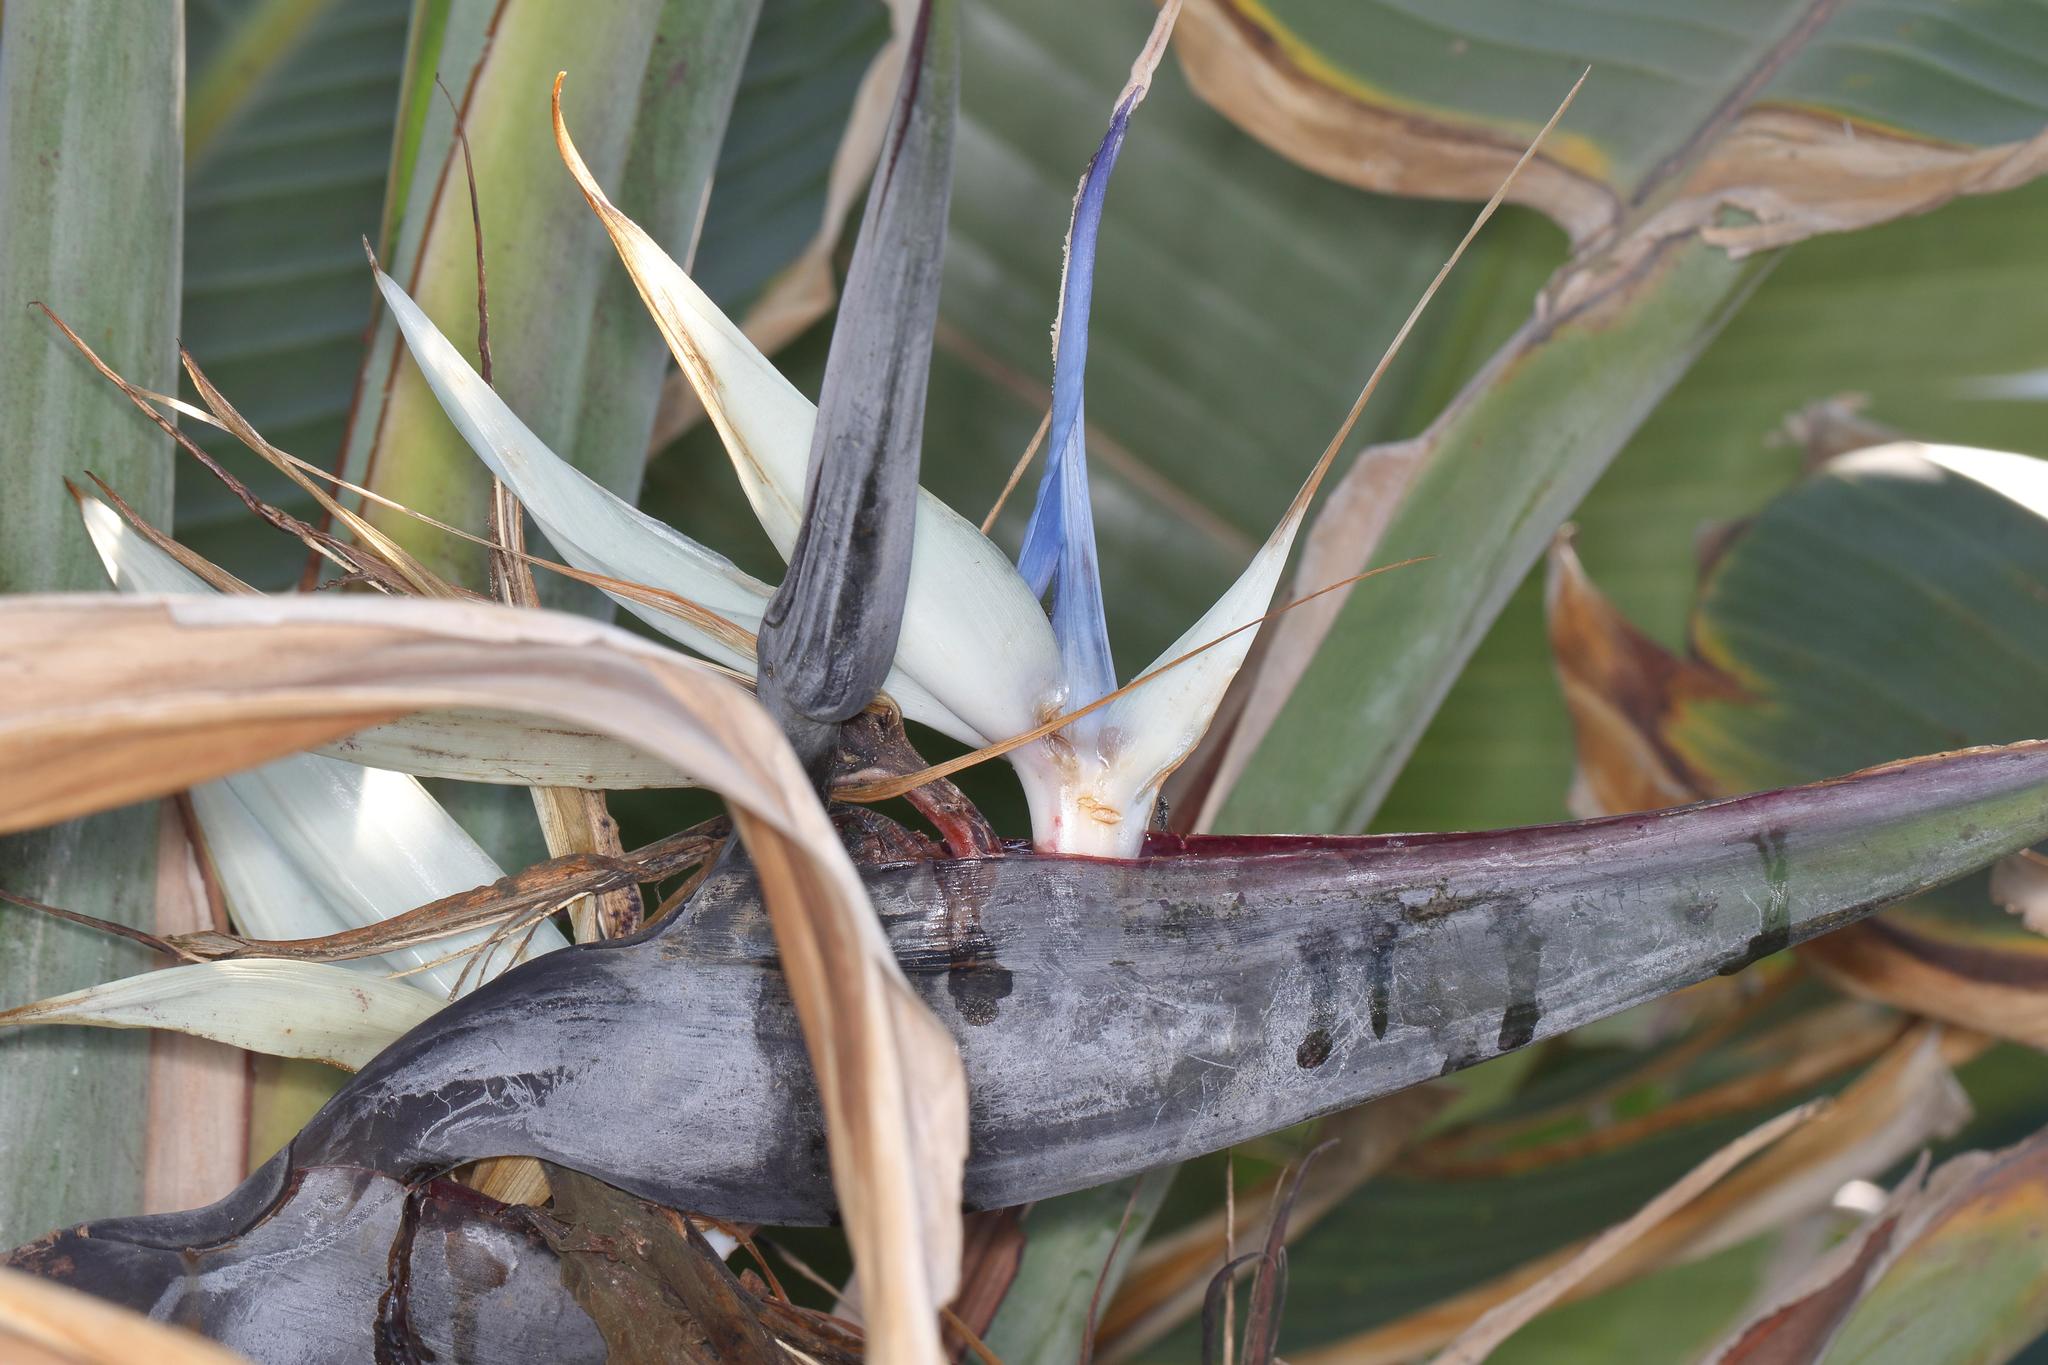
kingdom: Plantae
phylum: Tracheophyta
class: Liliopsida
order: Zingiberales
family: Strelitziaceae
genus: Strelitzia
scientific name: Strelitzia nicolai
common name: Bird-of-paradise tree
